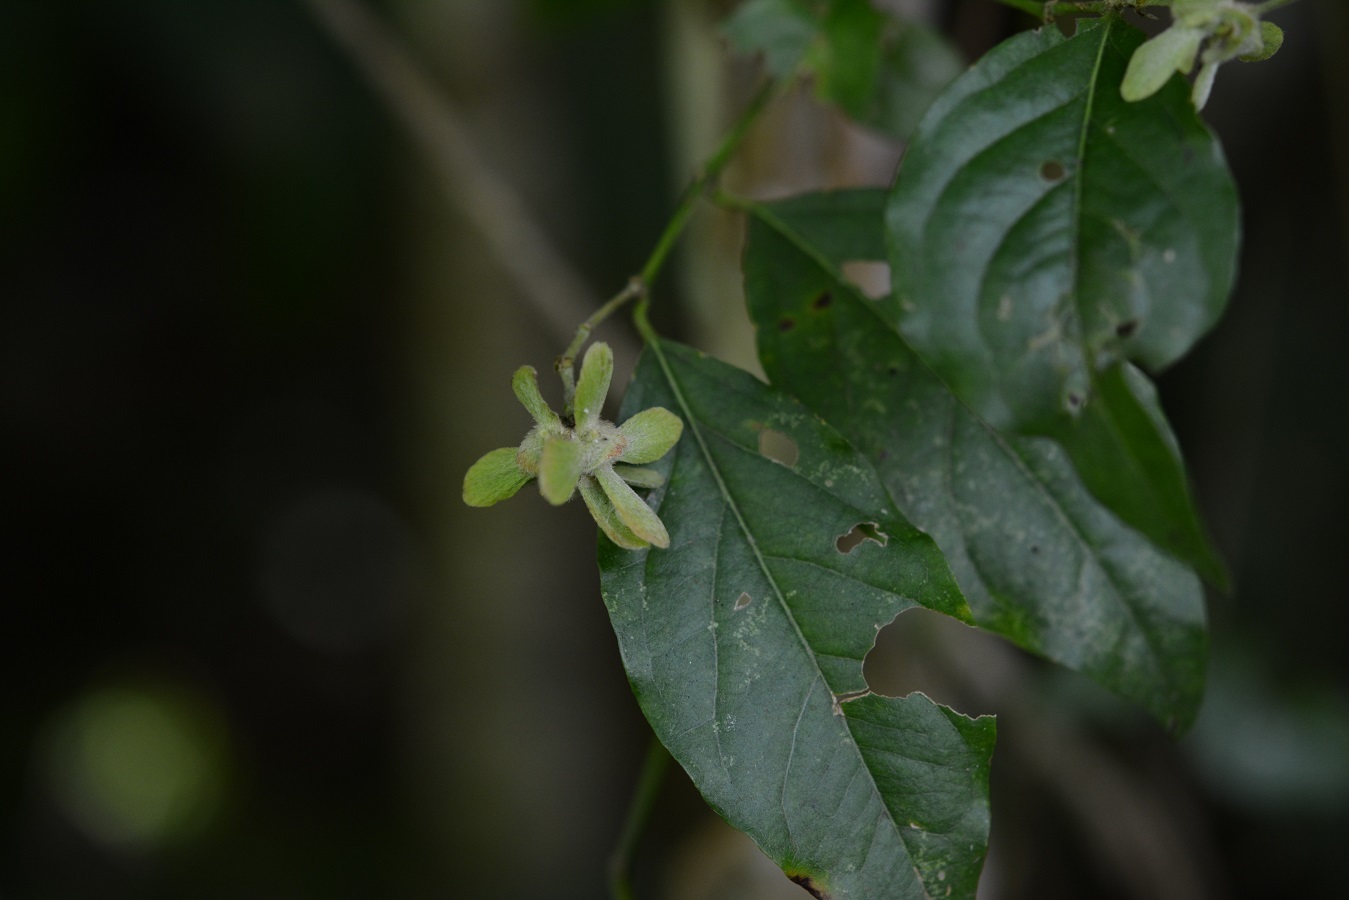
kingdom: Plantae
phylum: Tracheophyta
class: Magnoliopsida
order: Malpighiales
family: Malpighiaceae
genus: Tetrapterys
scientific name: Tetrapterys schiedeana
